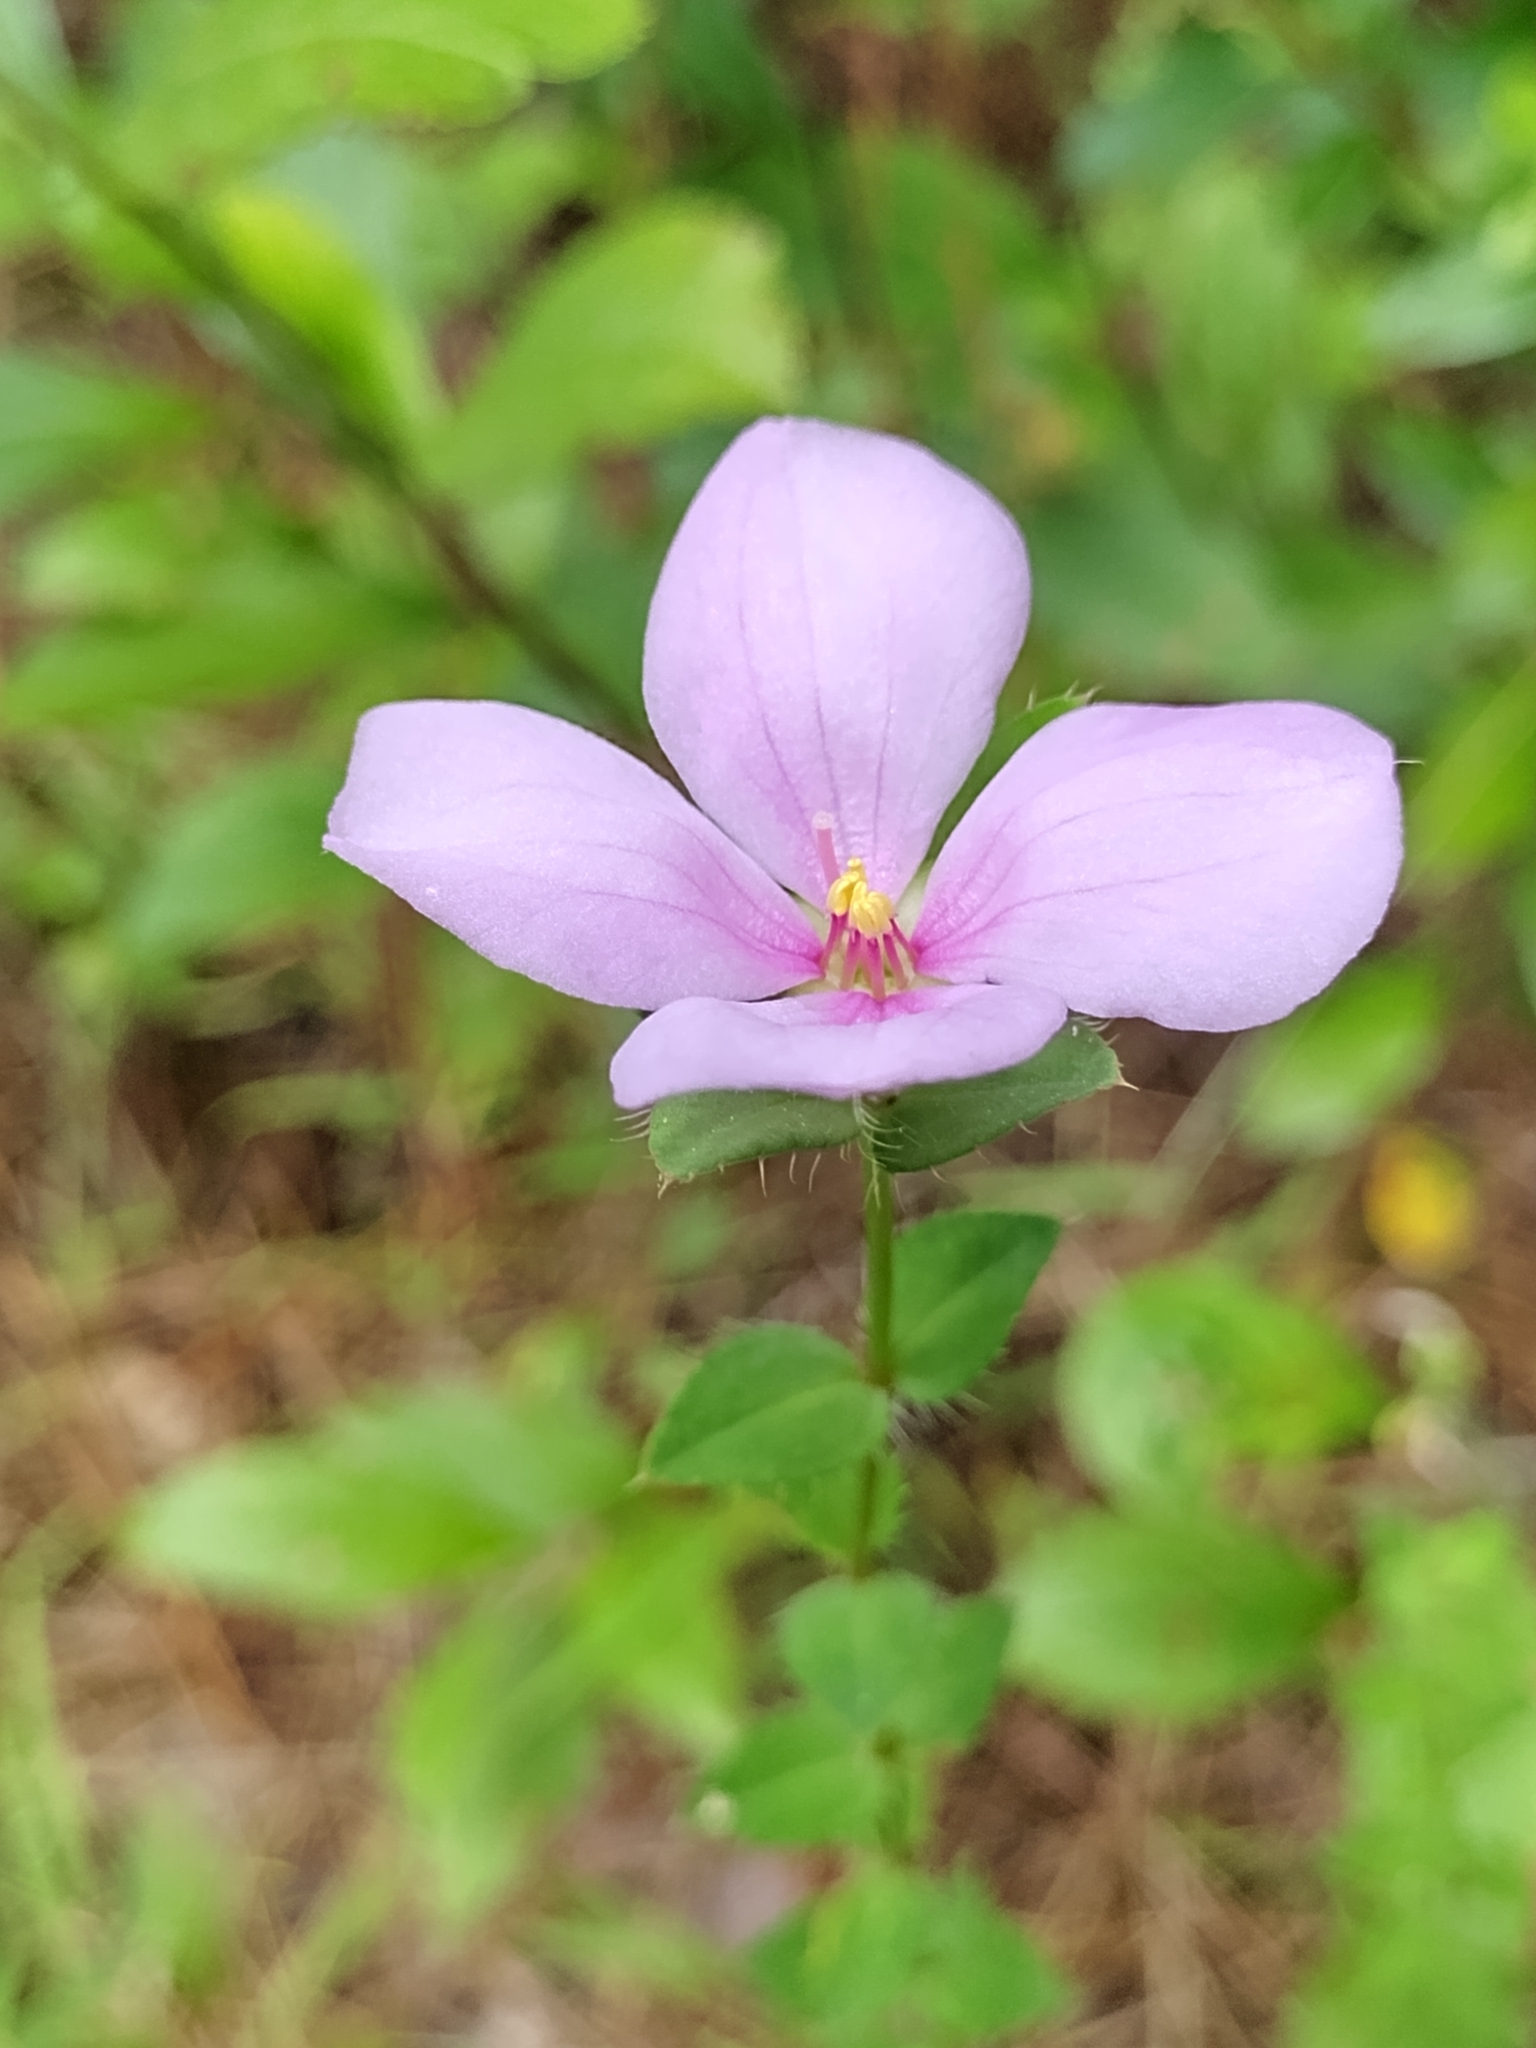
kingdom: Plantae
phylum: Tracheophyta
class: Magnoliopsida
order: Myrtales
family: Melastomataceae
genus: Rhexia
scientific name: Rhexia petiolata
